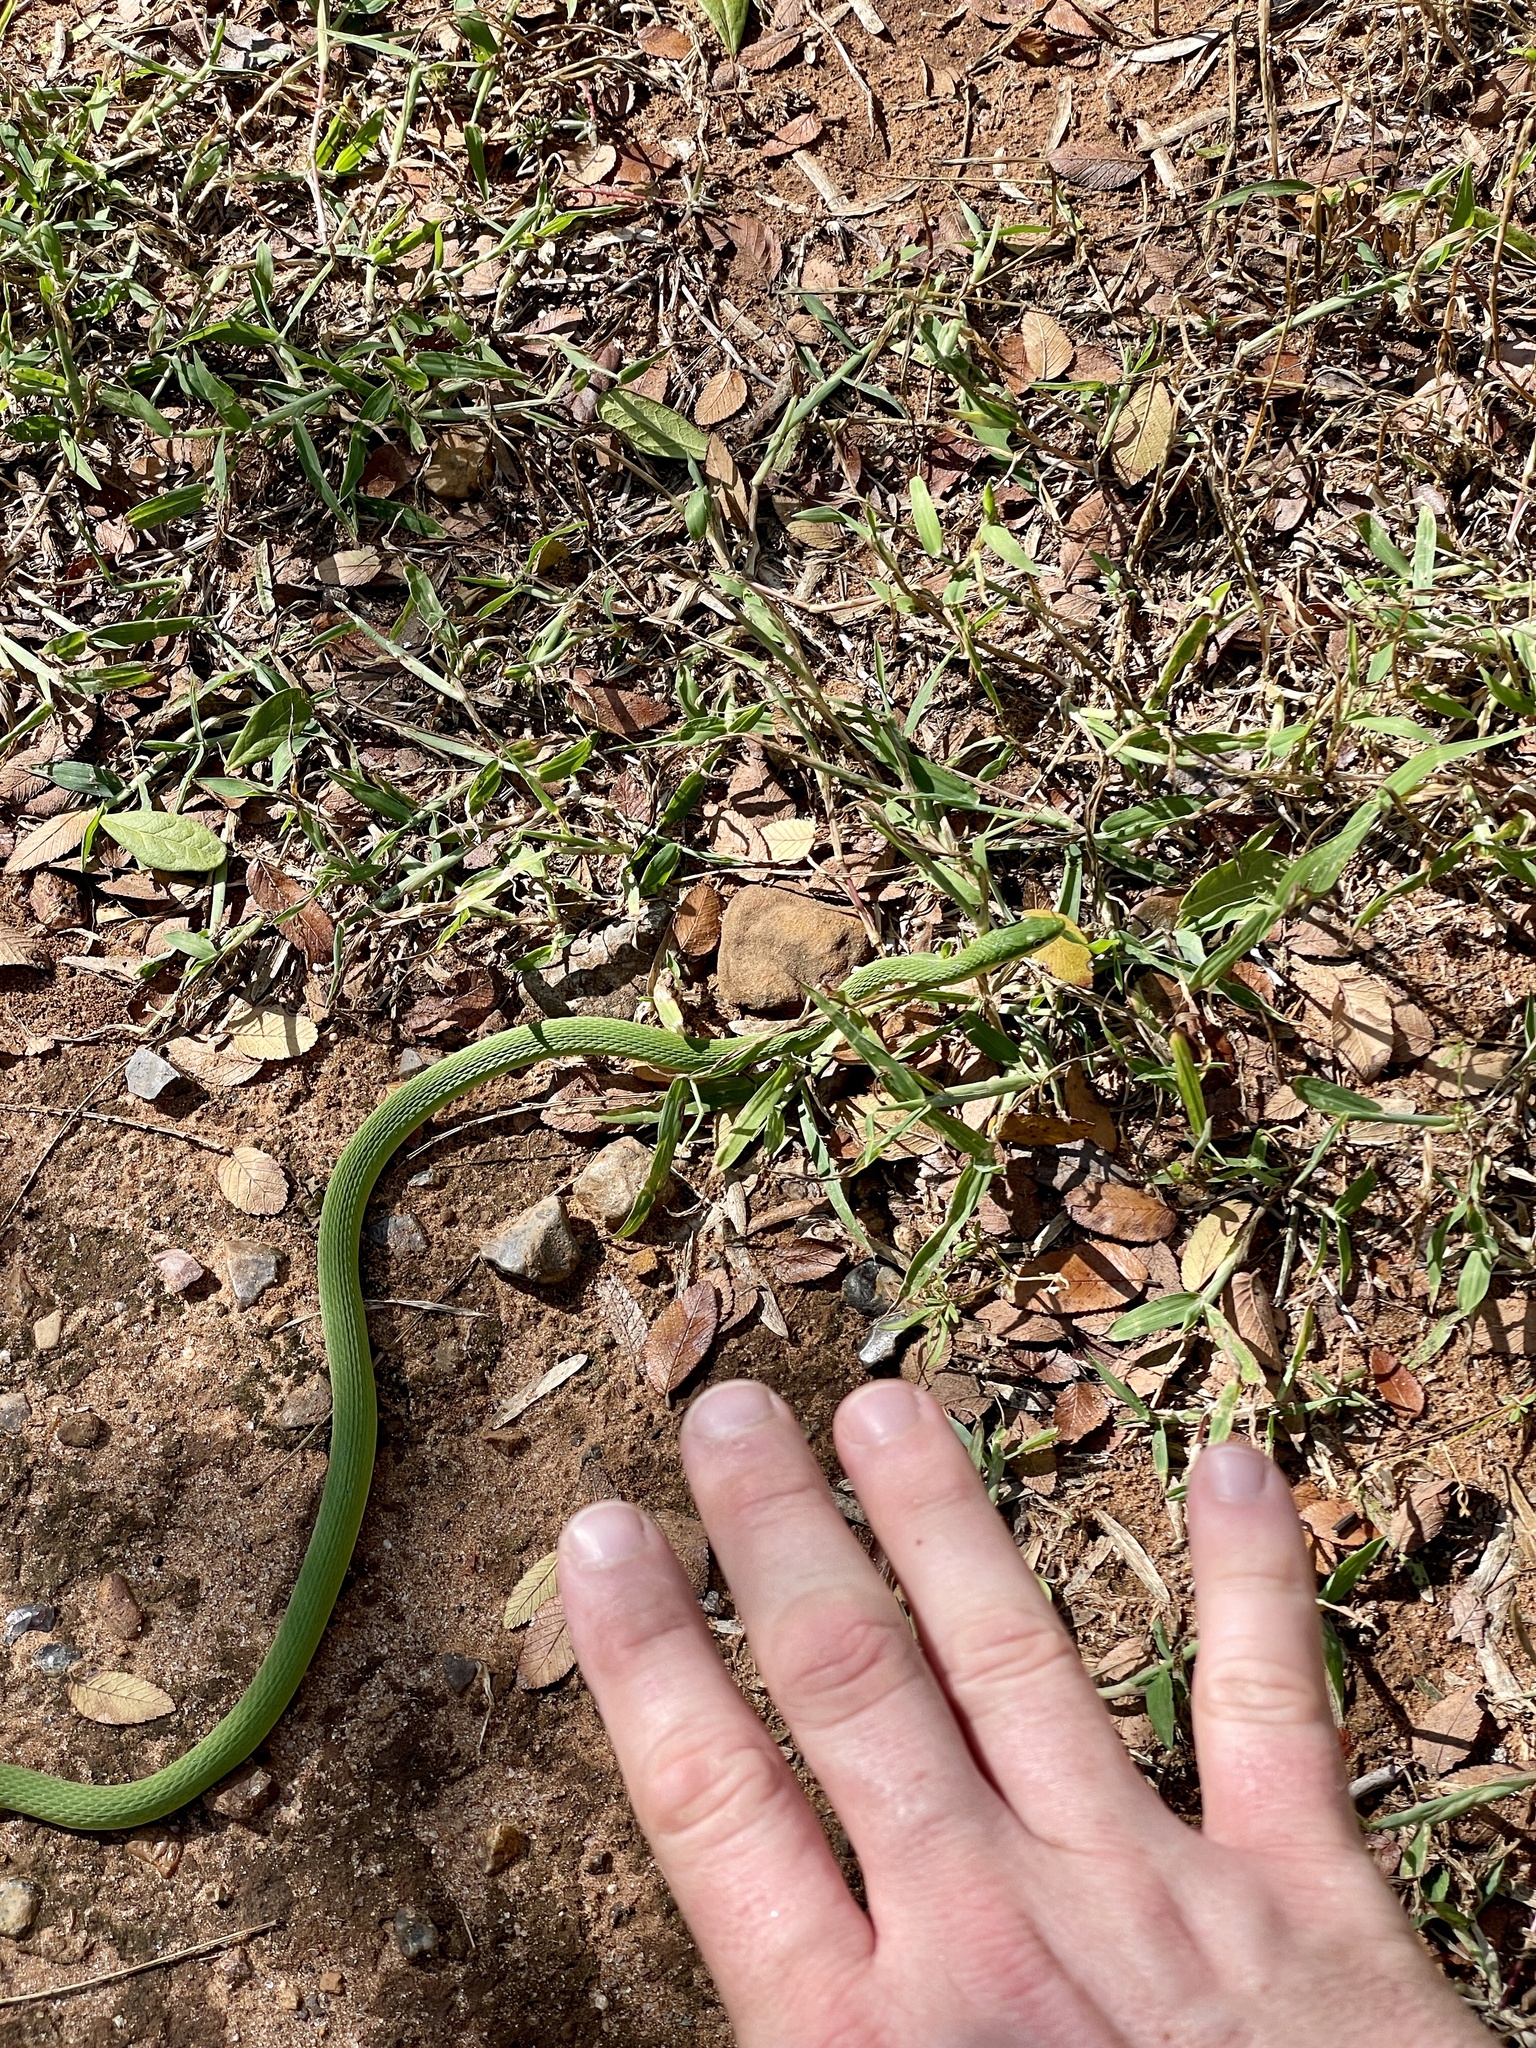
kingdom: Animalia
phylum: Chordata
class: Squamata
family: Colubridae
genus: Opheodrys
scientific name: Opheodrys aestivus
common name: Rough greensnake
